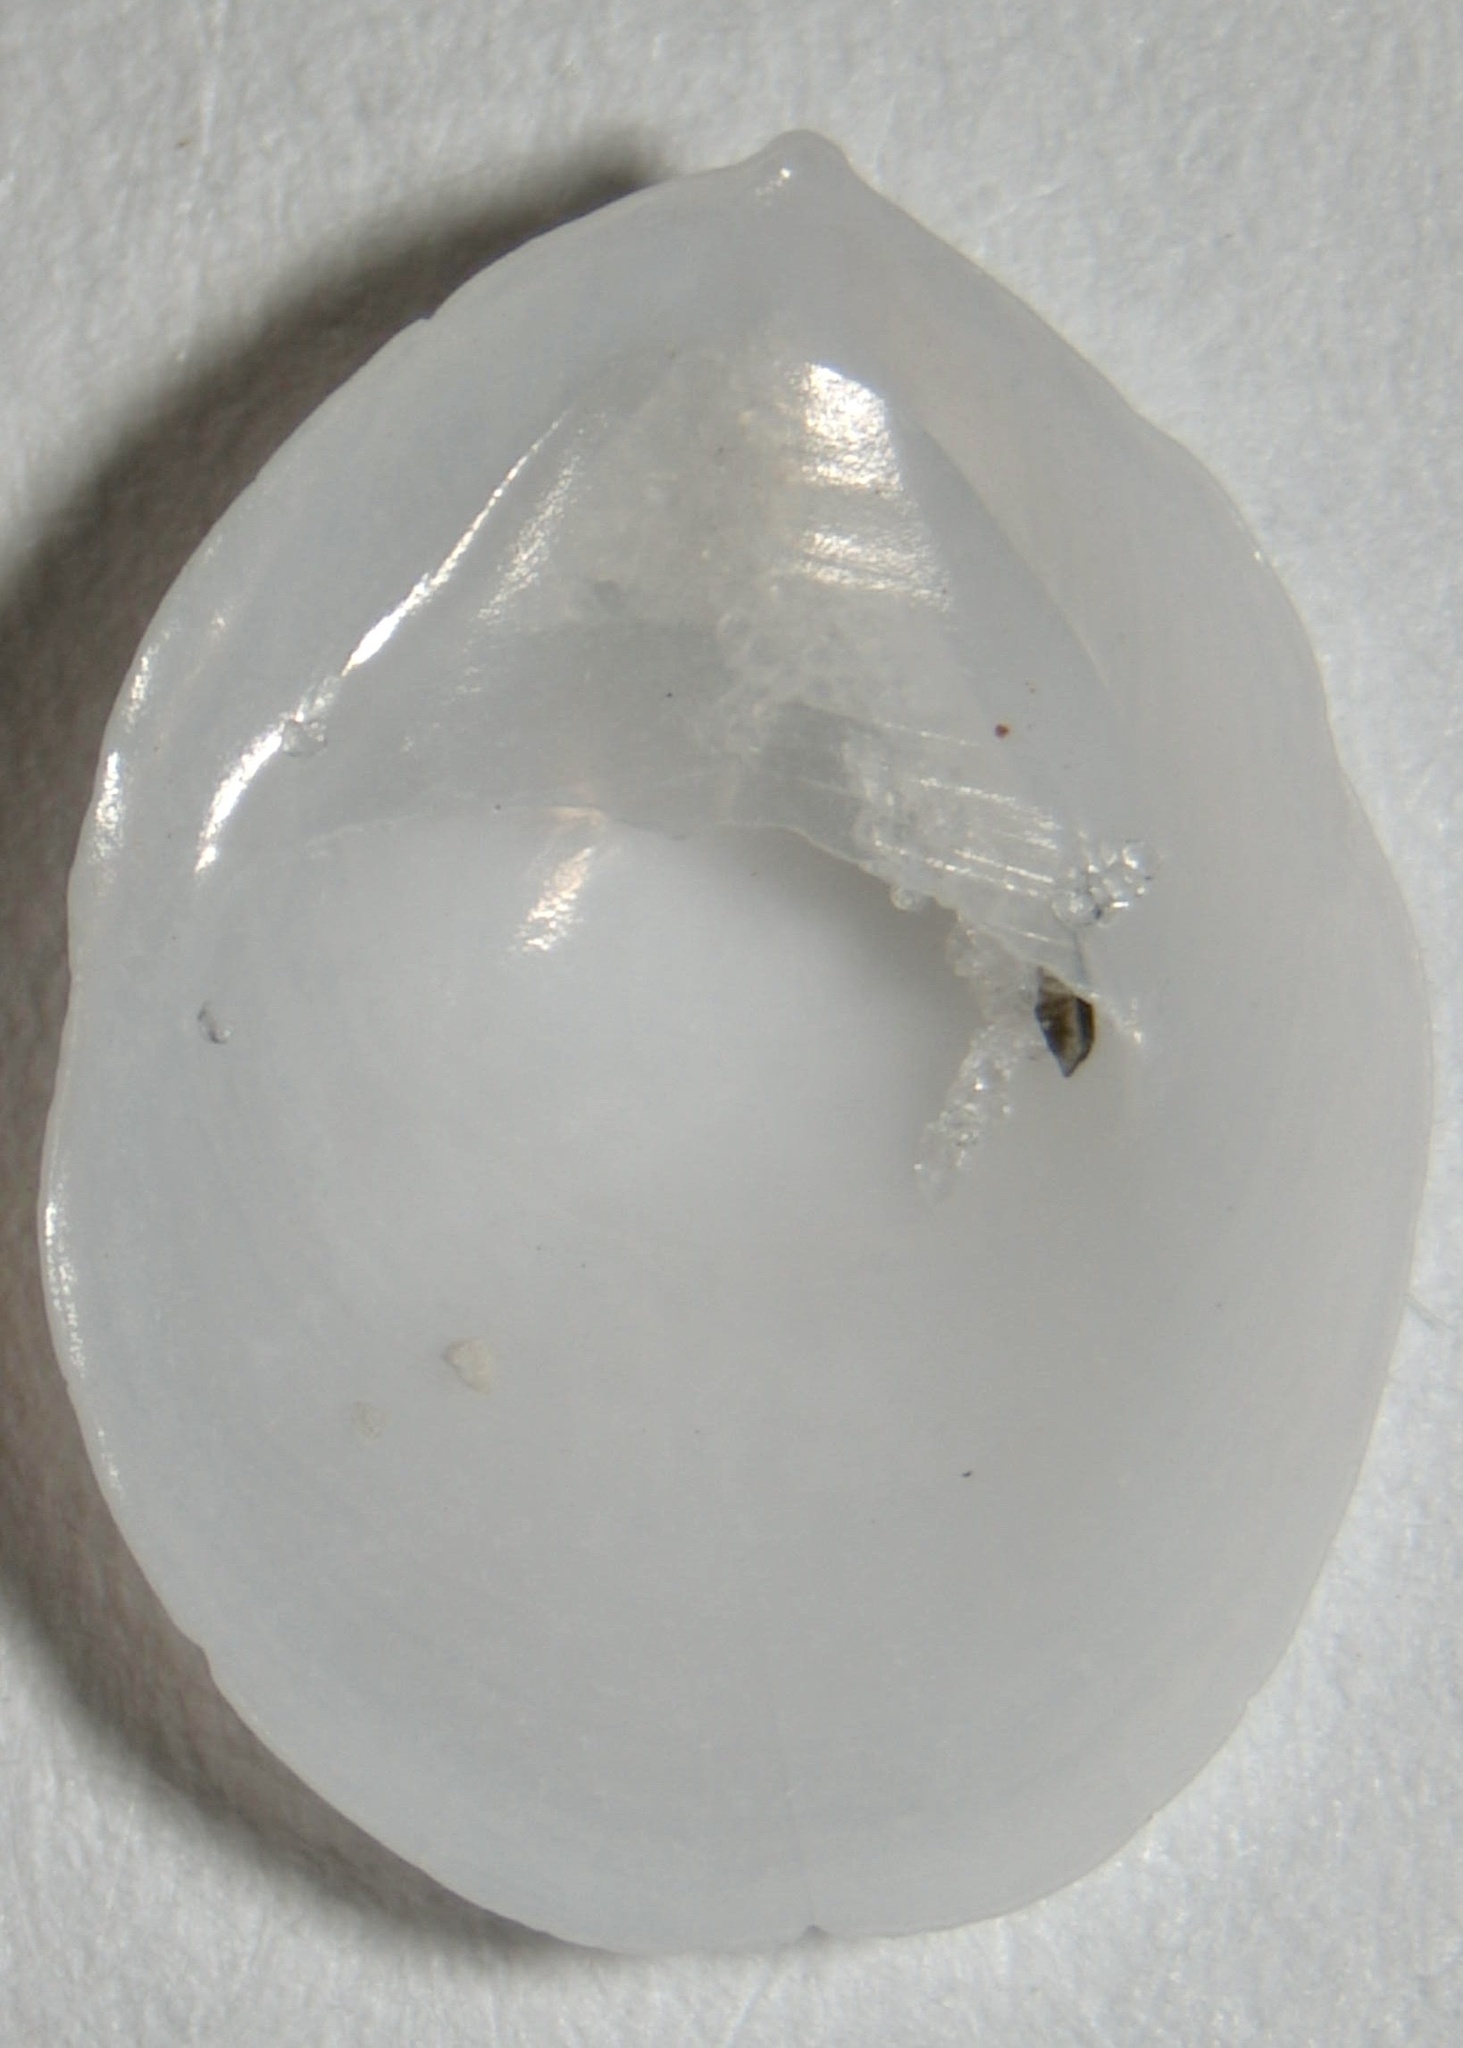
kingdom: Animalia
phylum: Mollusca
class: Gastropoda
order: Littorinimorpha
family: Calyptraeidae
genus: Crepidula
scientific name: Crepidula depressa
